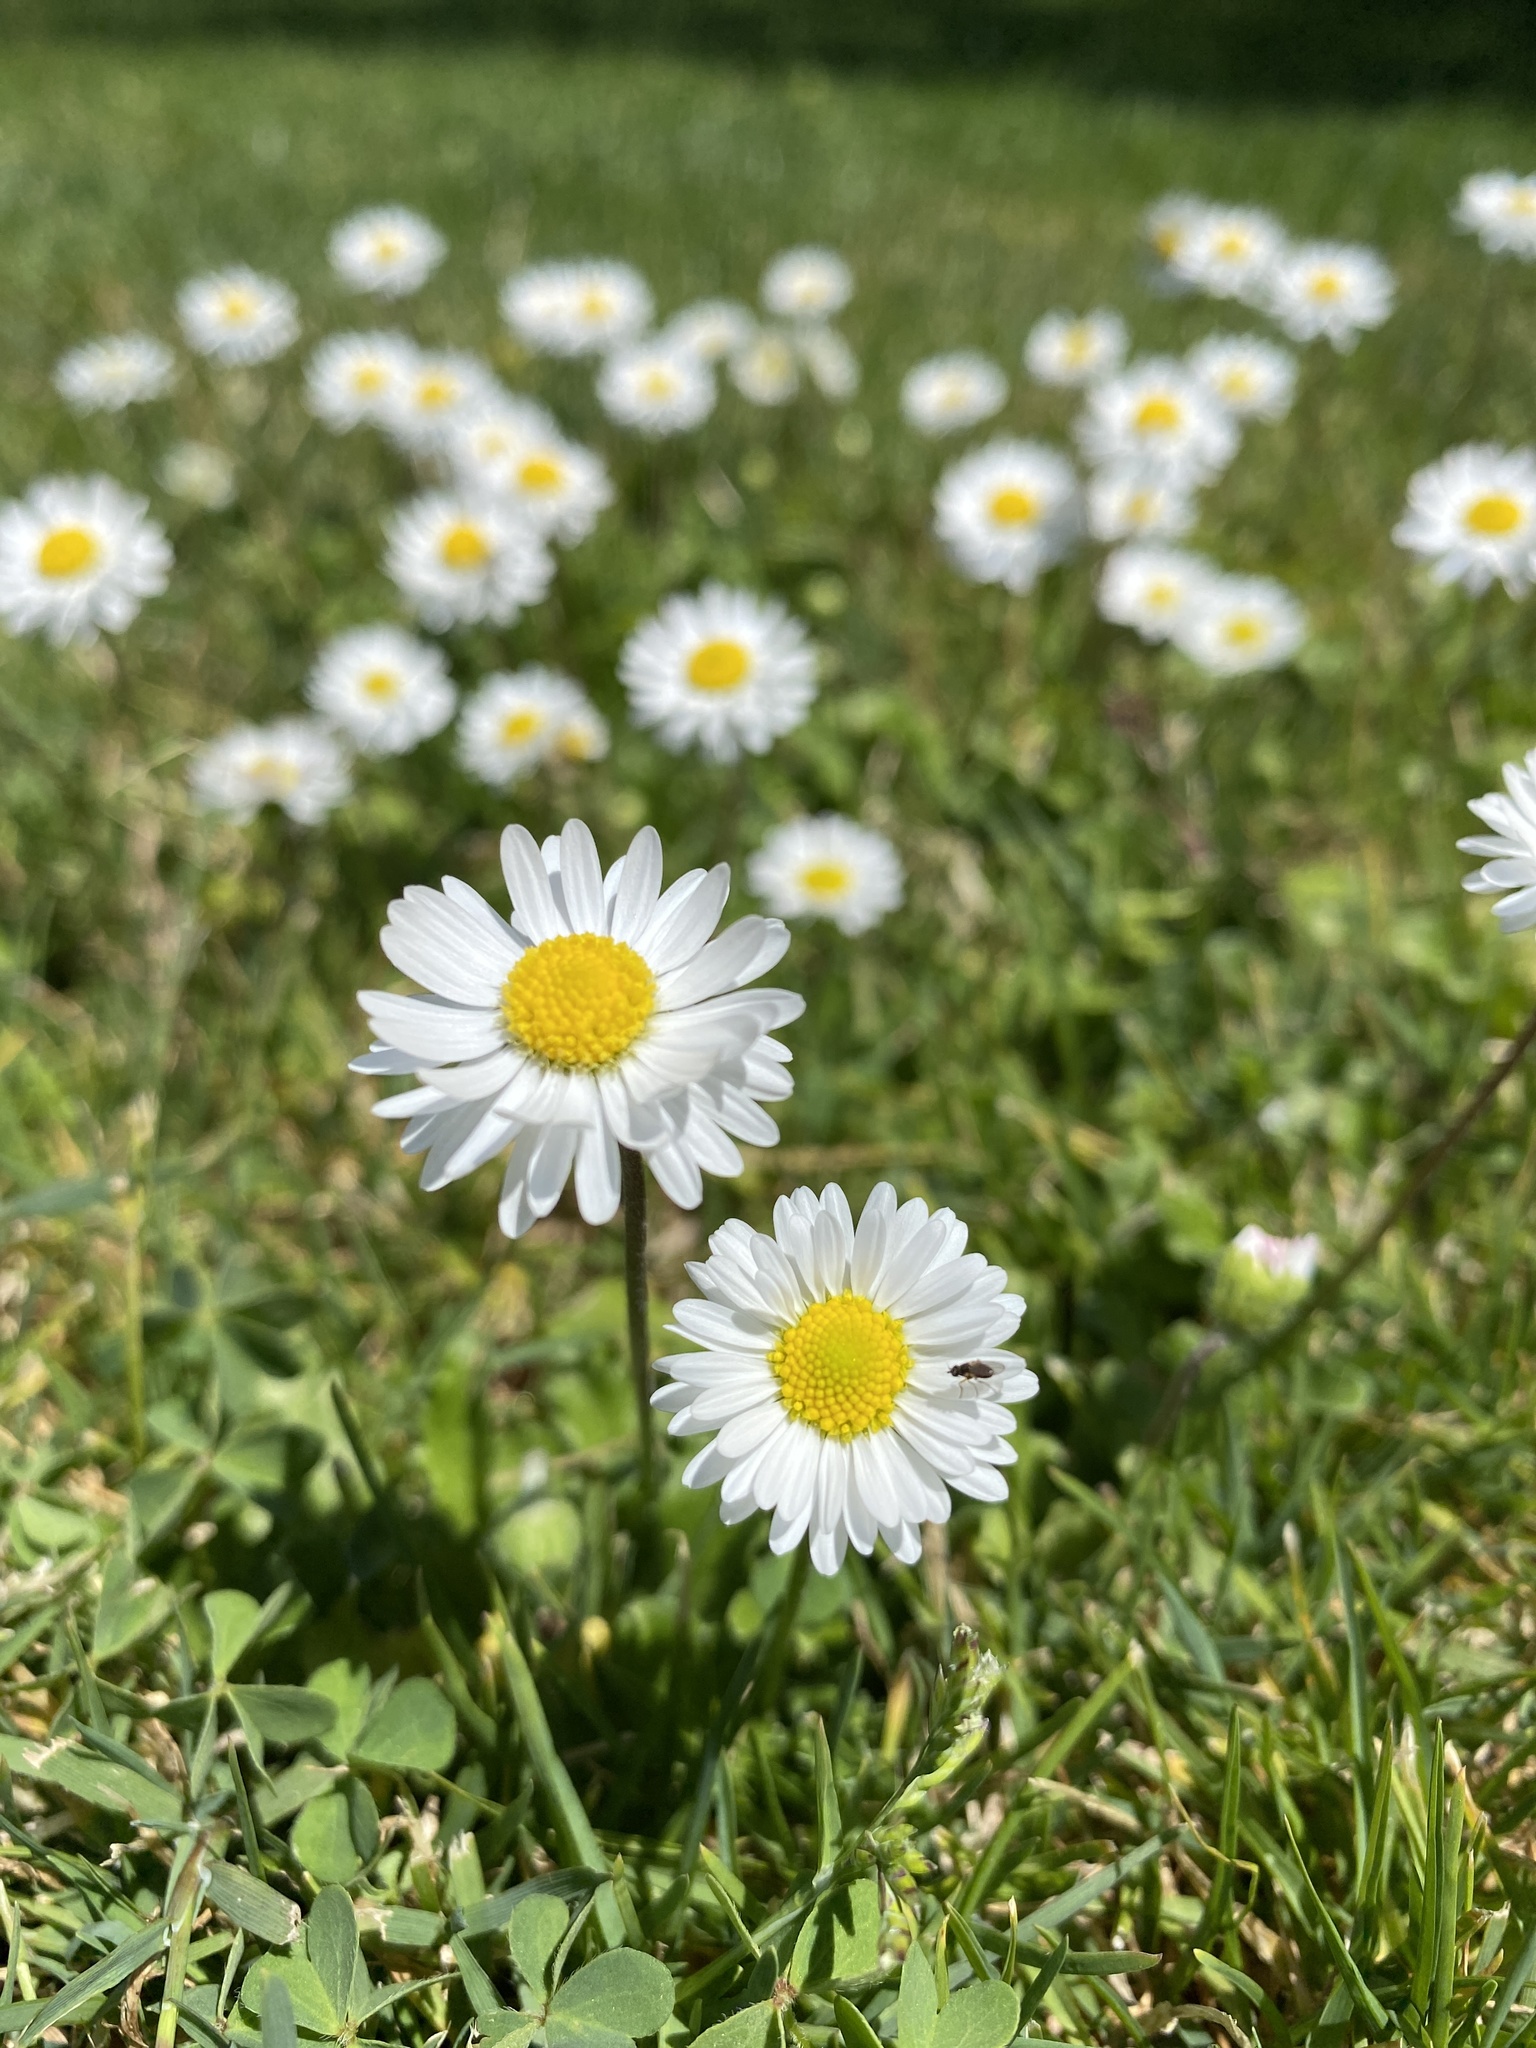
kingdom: Plantae
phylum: Tracheophyta
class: Magnoliopsida
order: Asterales
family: Asteraceae
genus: Bellis
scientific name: Bellis perennis
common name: Lawndaisy
